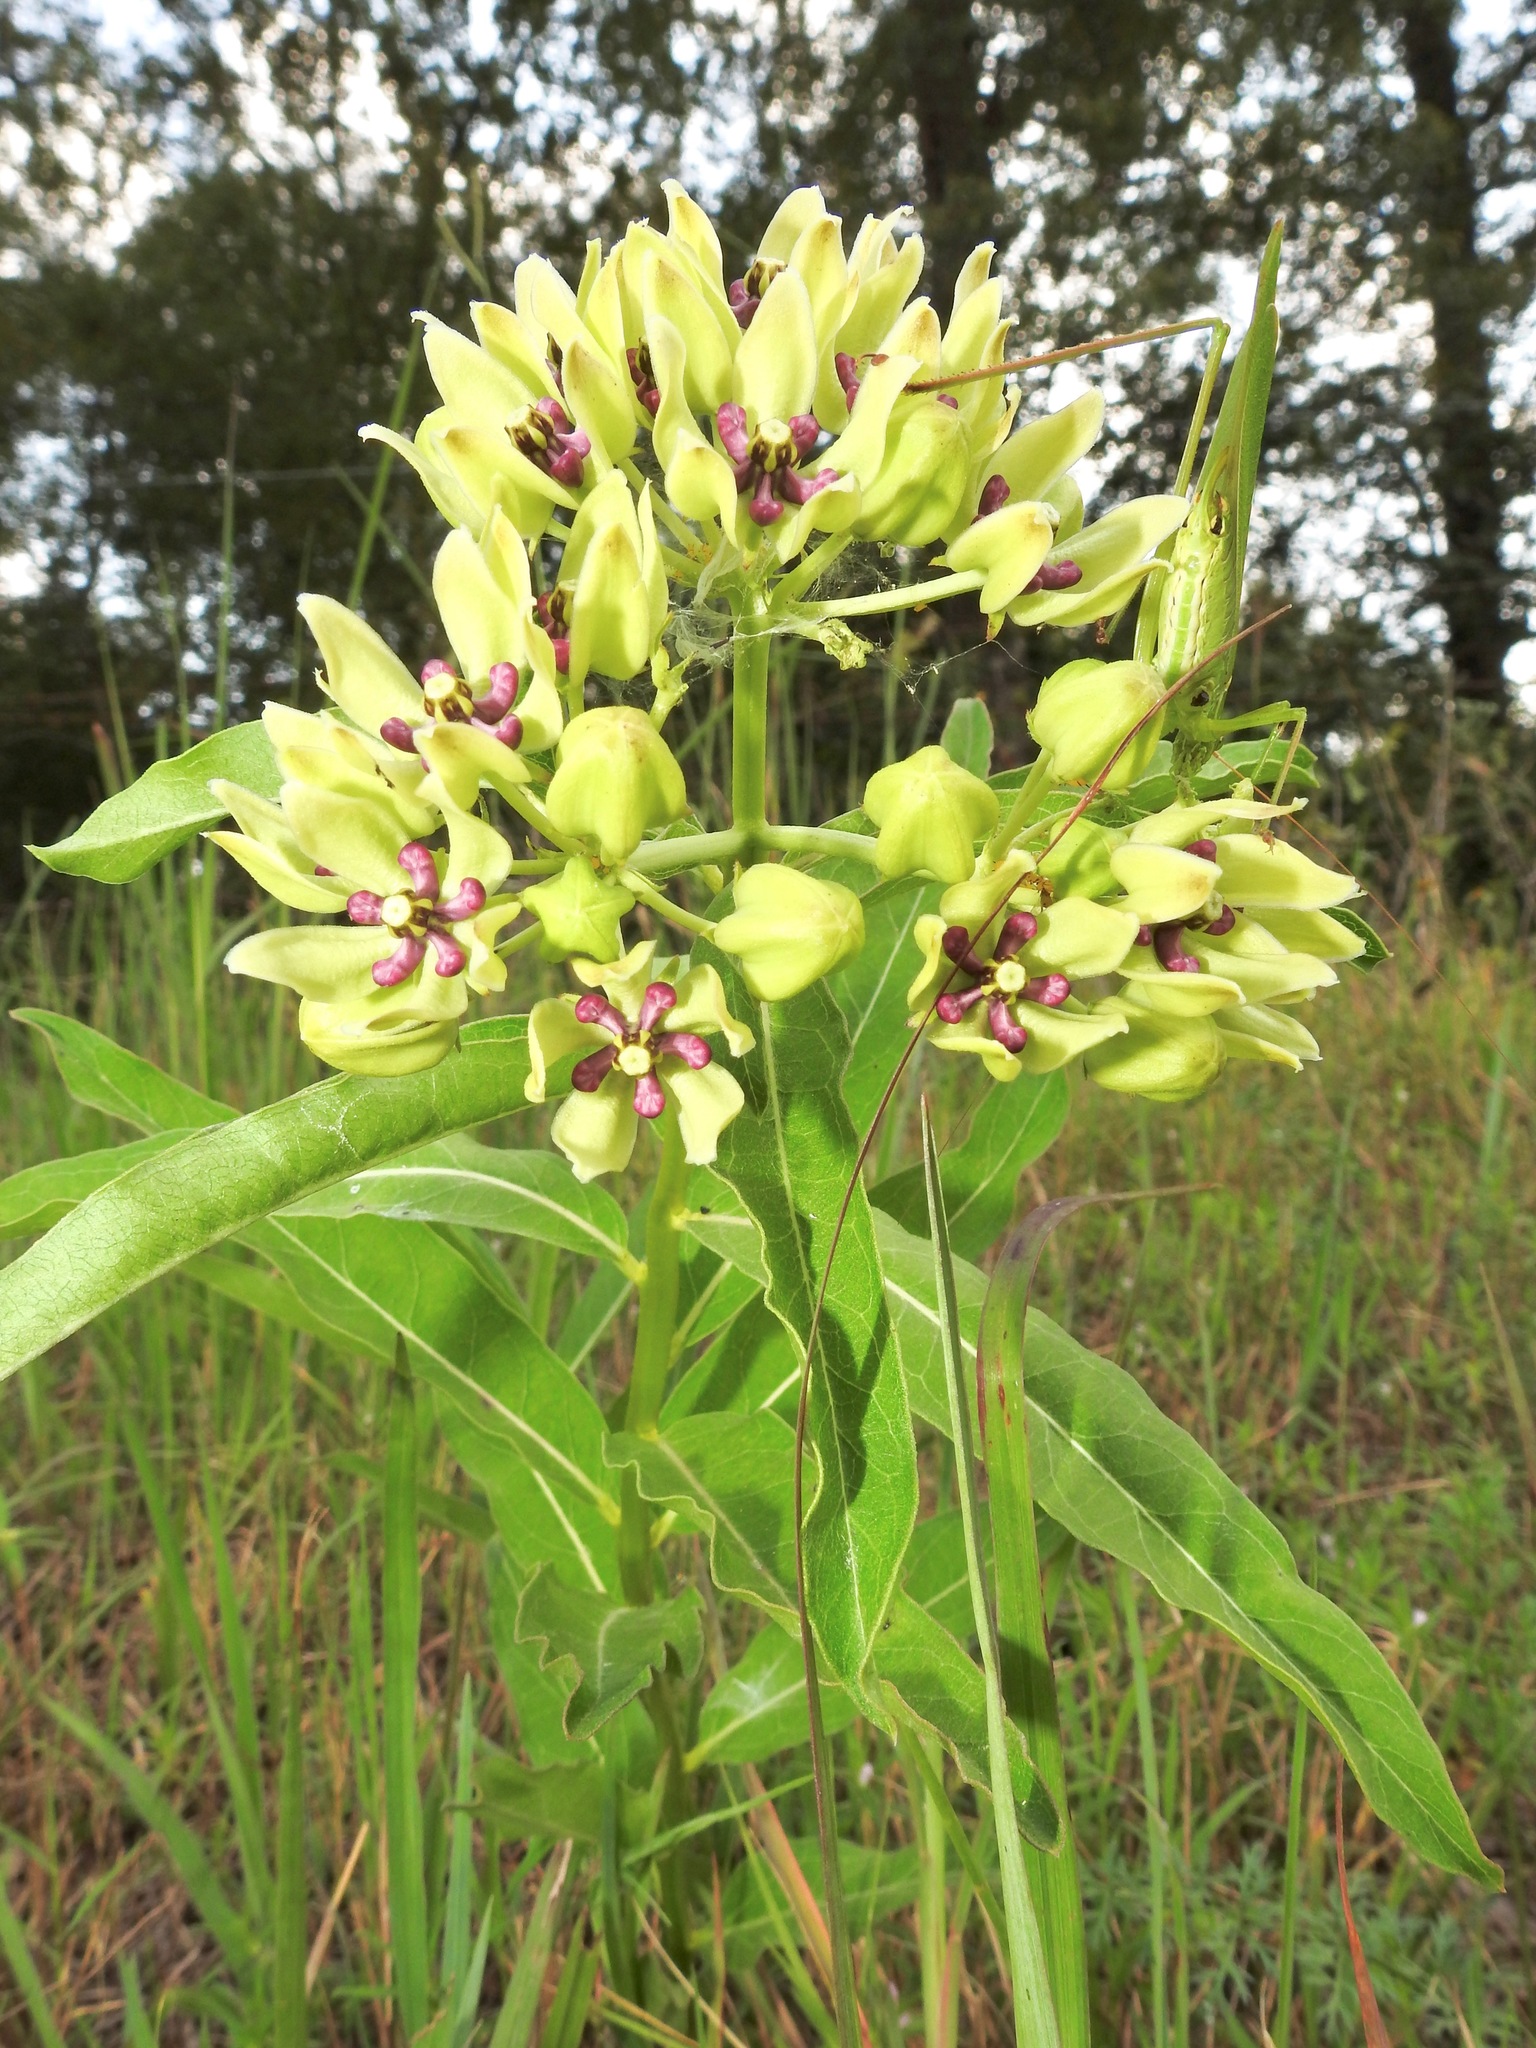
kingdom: Plantae
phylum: Tracheophyta
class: Magnoliopsida
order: Gentianales
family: Apocynaceae
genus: Asclepias
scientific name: Asclepias viridis
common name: Antelope-horns
